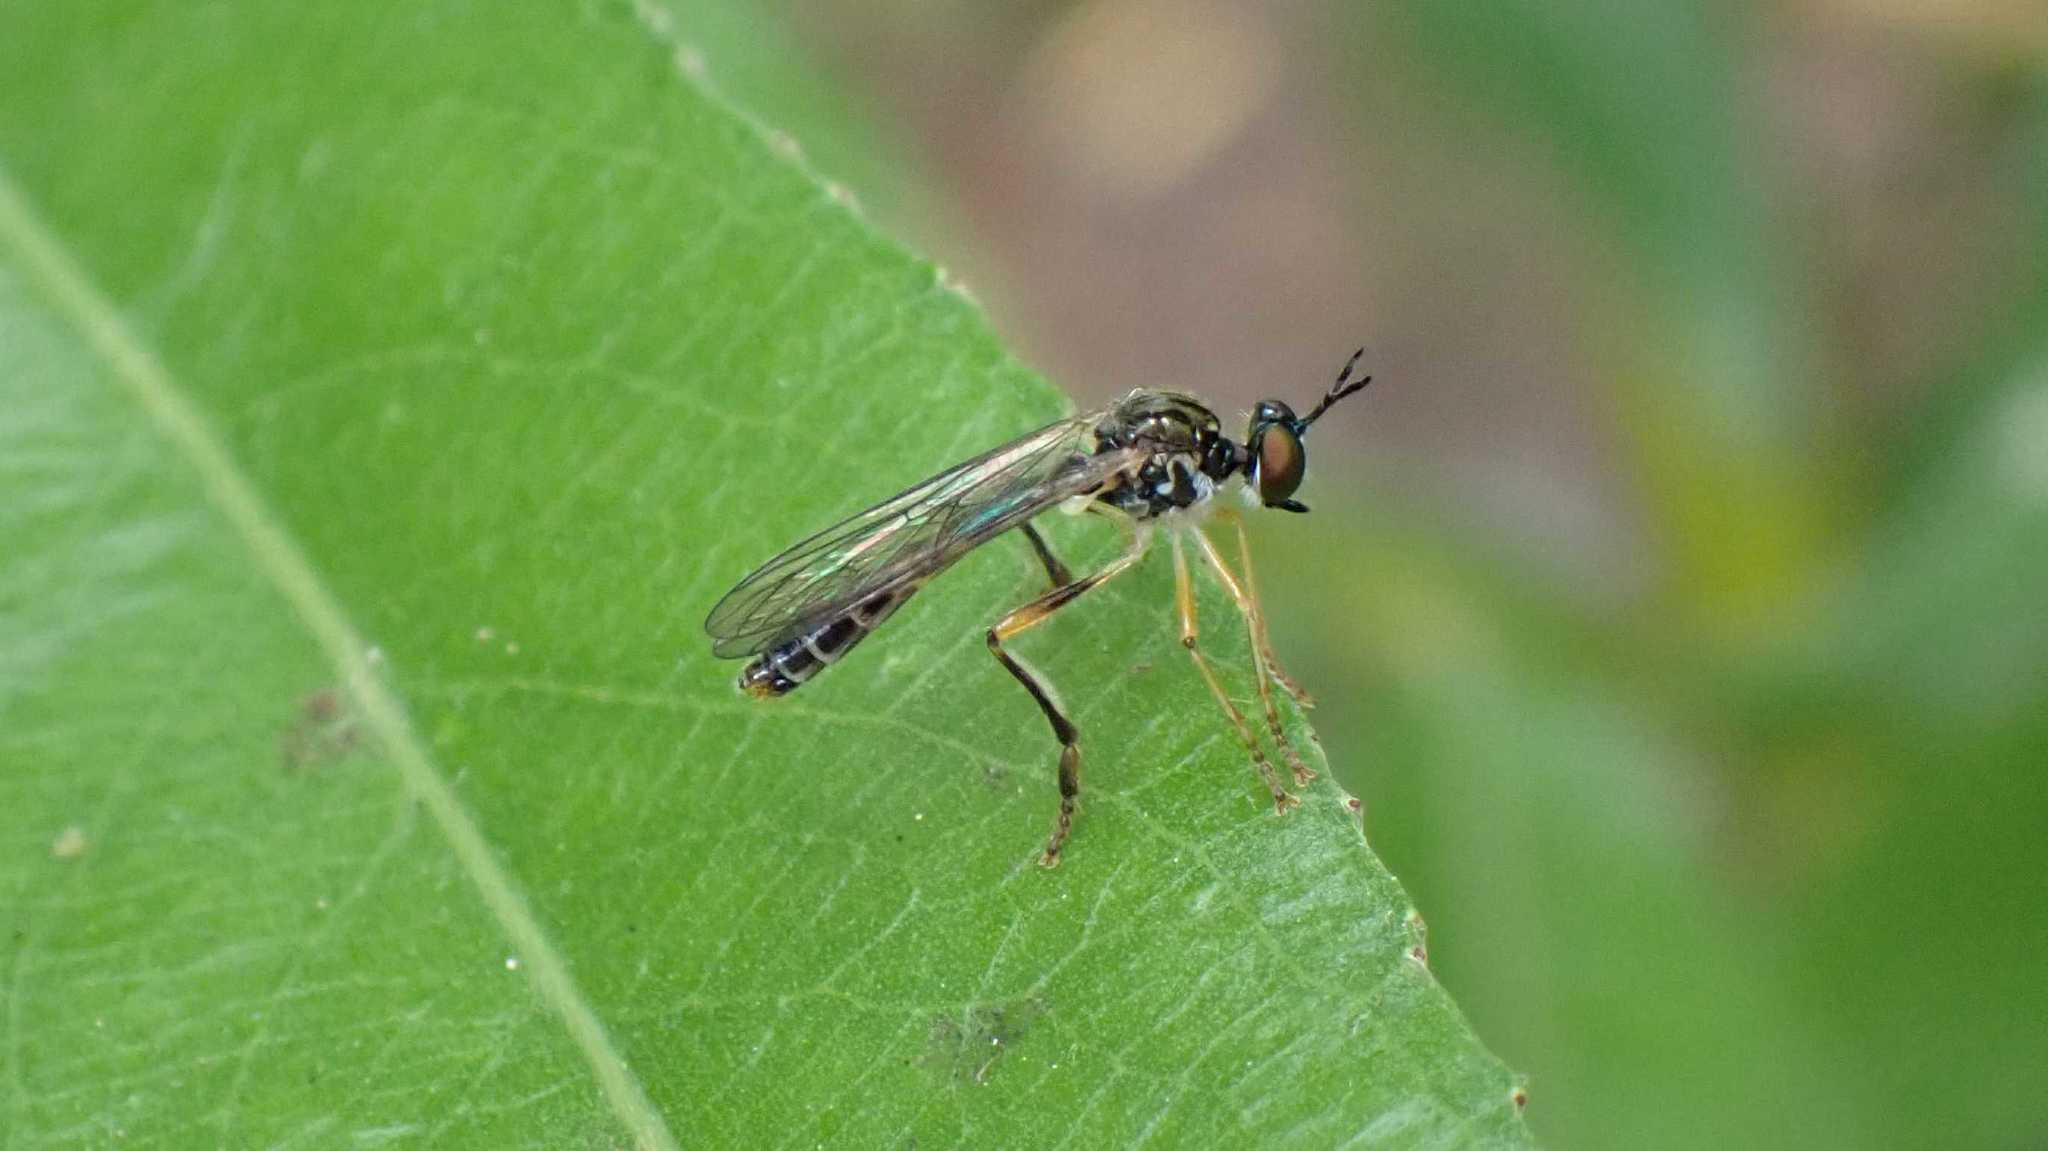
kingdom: Animalia
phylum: Arthropoda
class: Insecta
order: Diptera
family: Asilidae
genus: Dioctria
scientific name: Dioctria linearis
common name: Small yellow-legged robberfly
